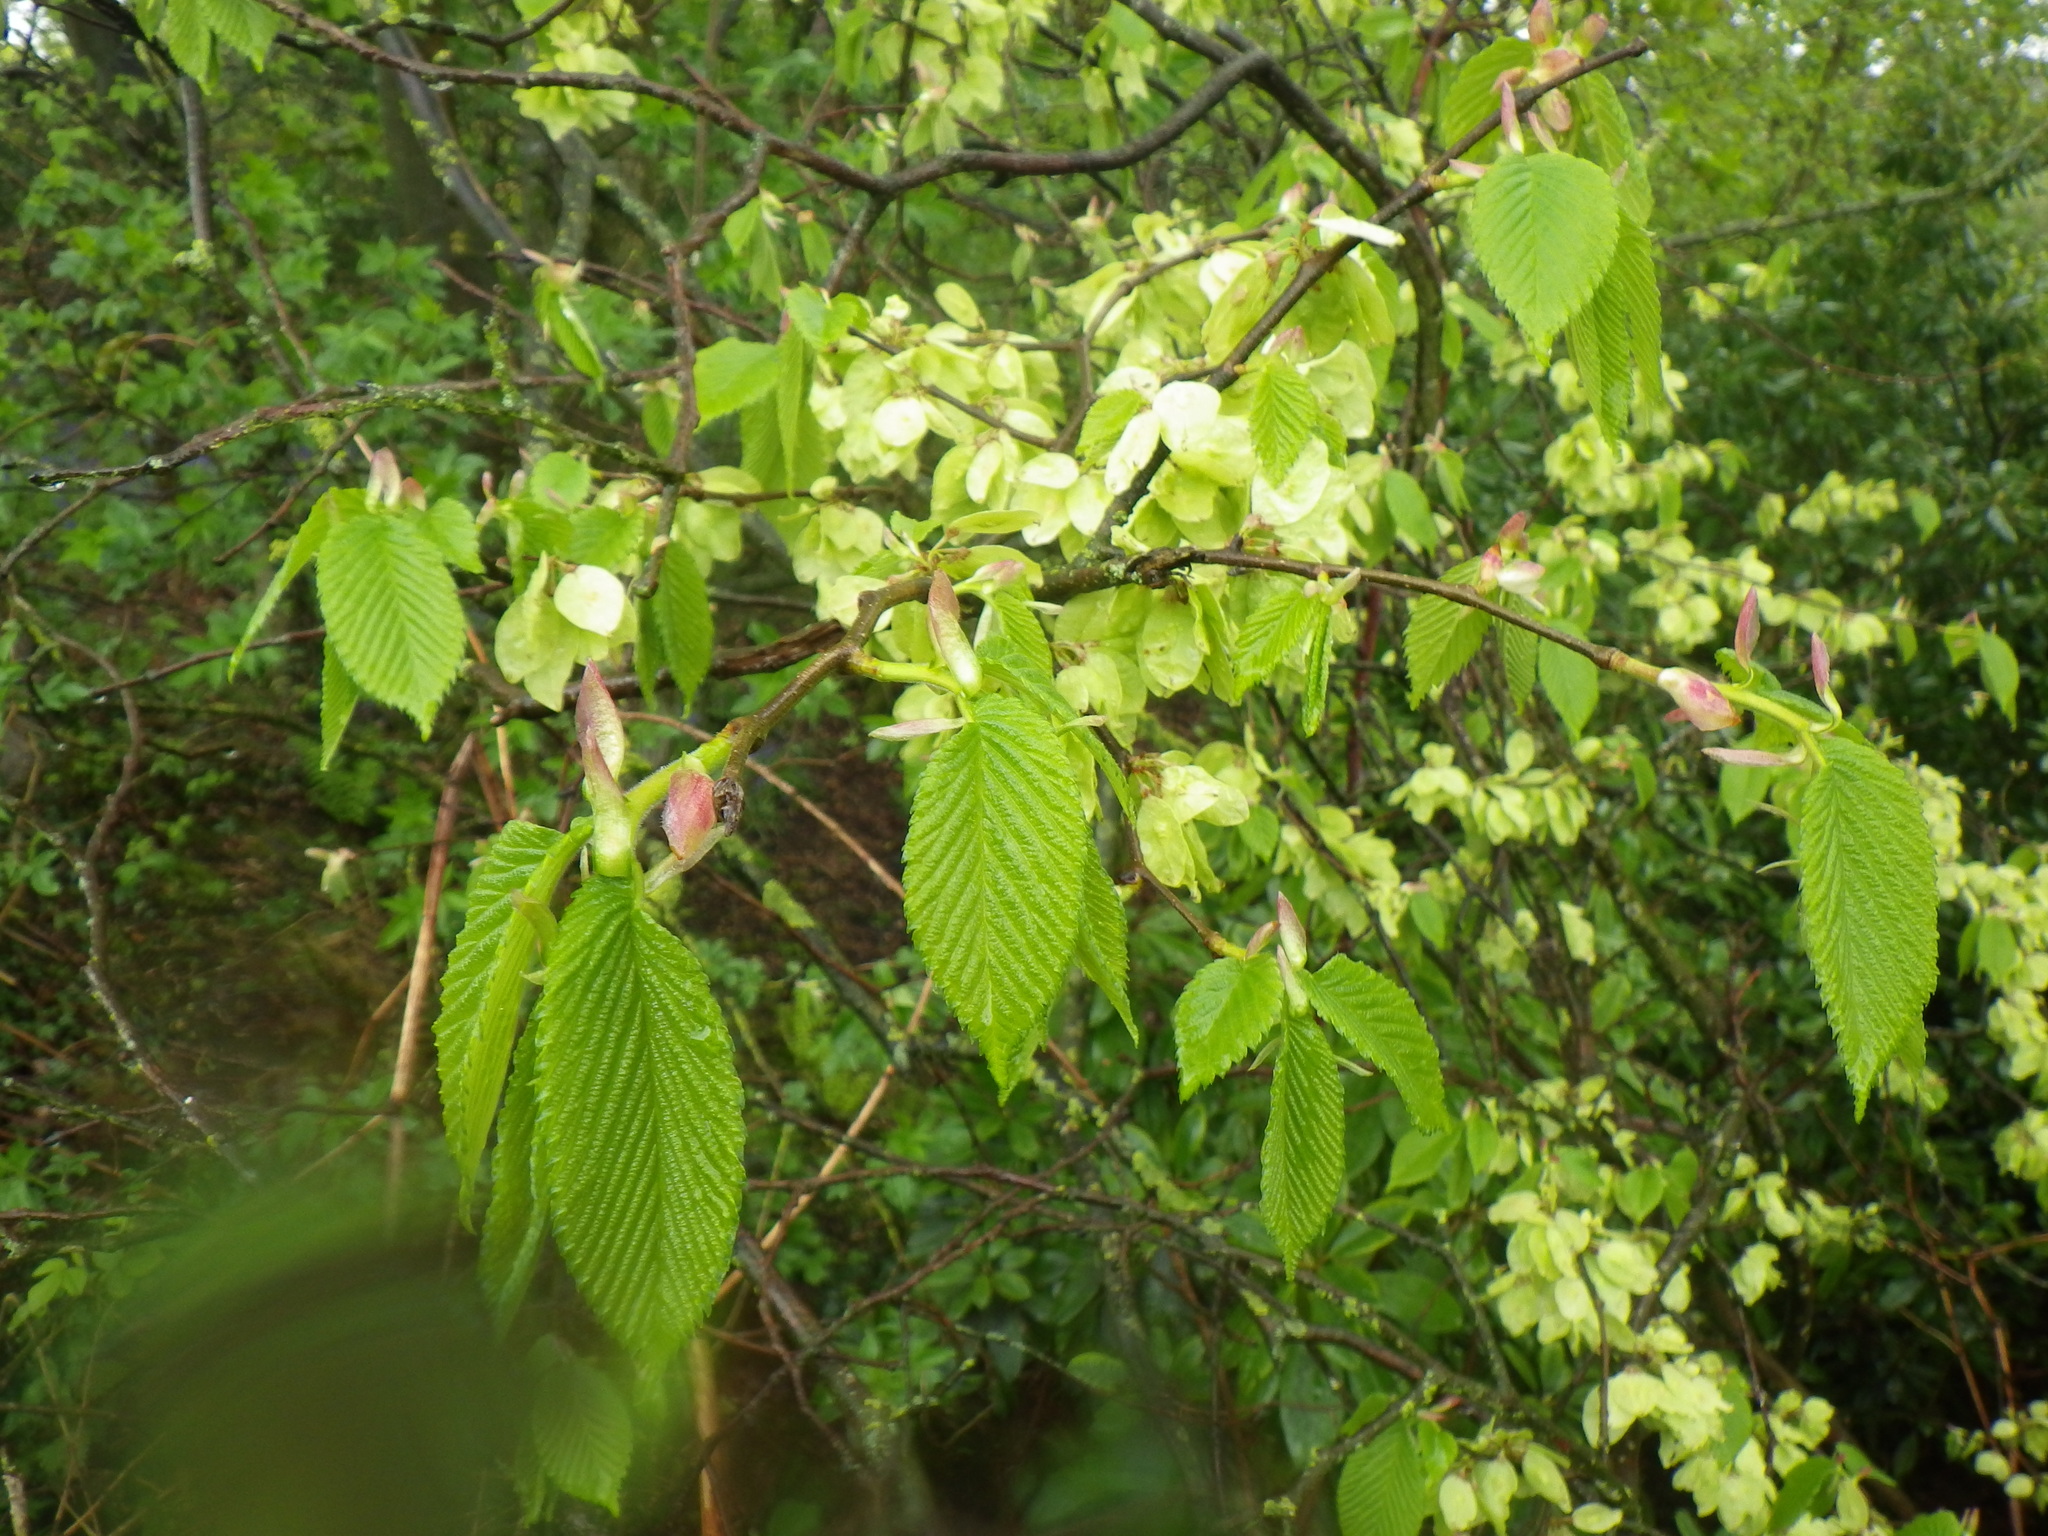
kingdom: Plantae
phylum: Tracheophyta
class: Magnoliopsida
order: Rosales
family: Ulmaceae
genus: Ulmus
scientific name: Ulmus glabra
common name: Wych elm
